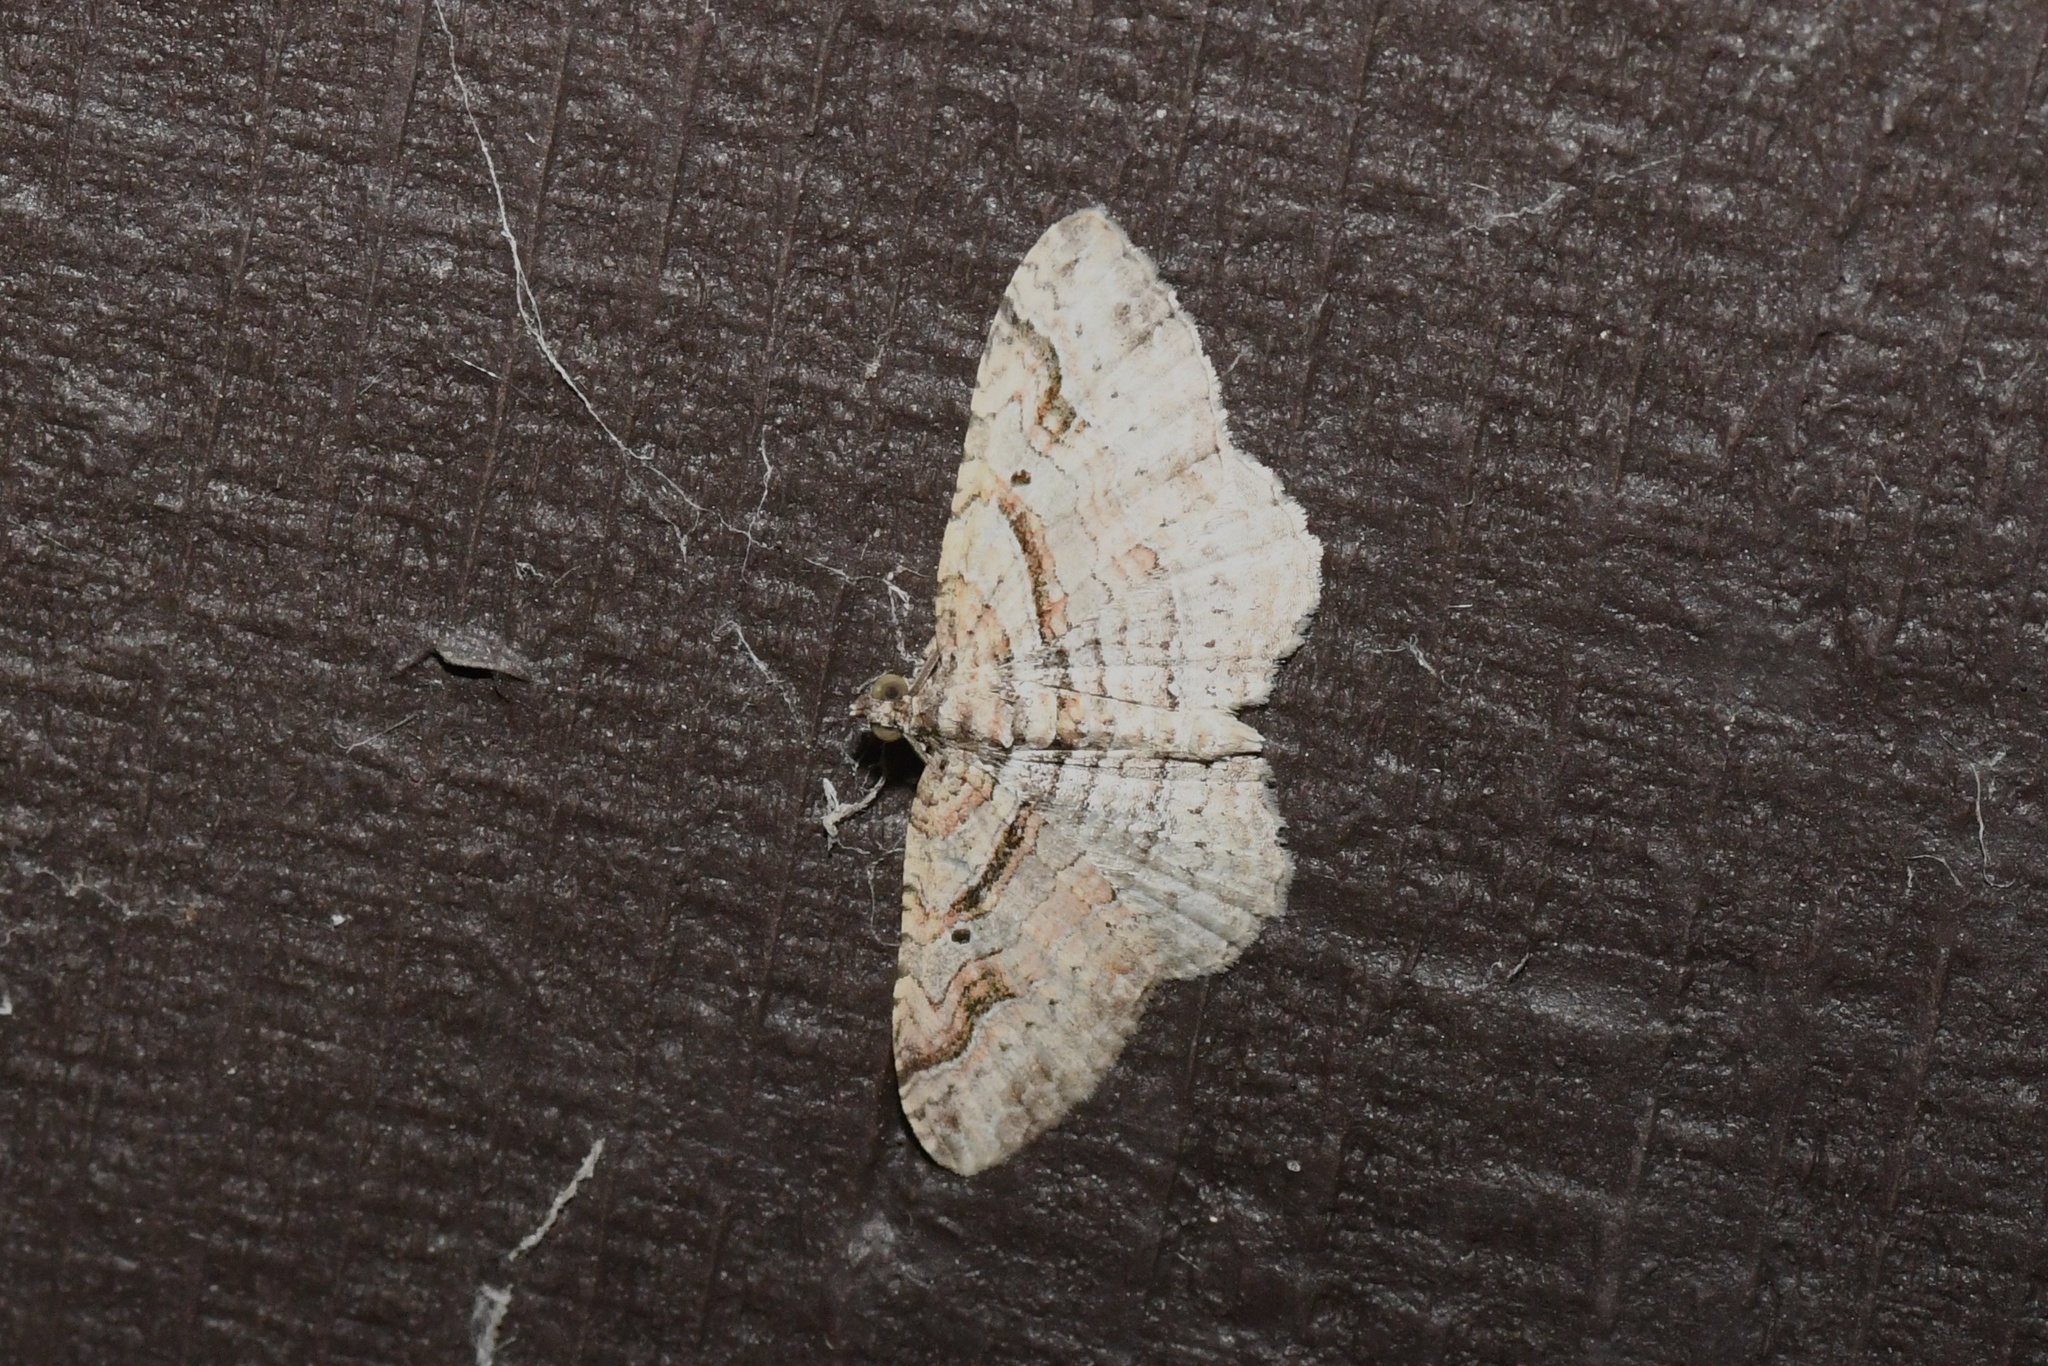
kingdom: Animalia
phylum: Arthropoda
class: Insecta
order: Lepidoptera
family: Geometridae
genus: Costaconvexa
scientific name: Costaconvexa centrostrigaria
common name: Bent-line carpet
